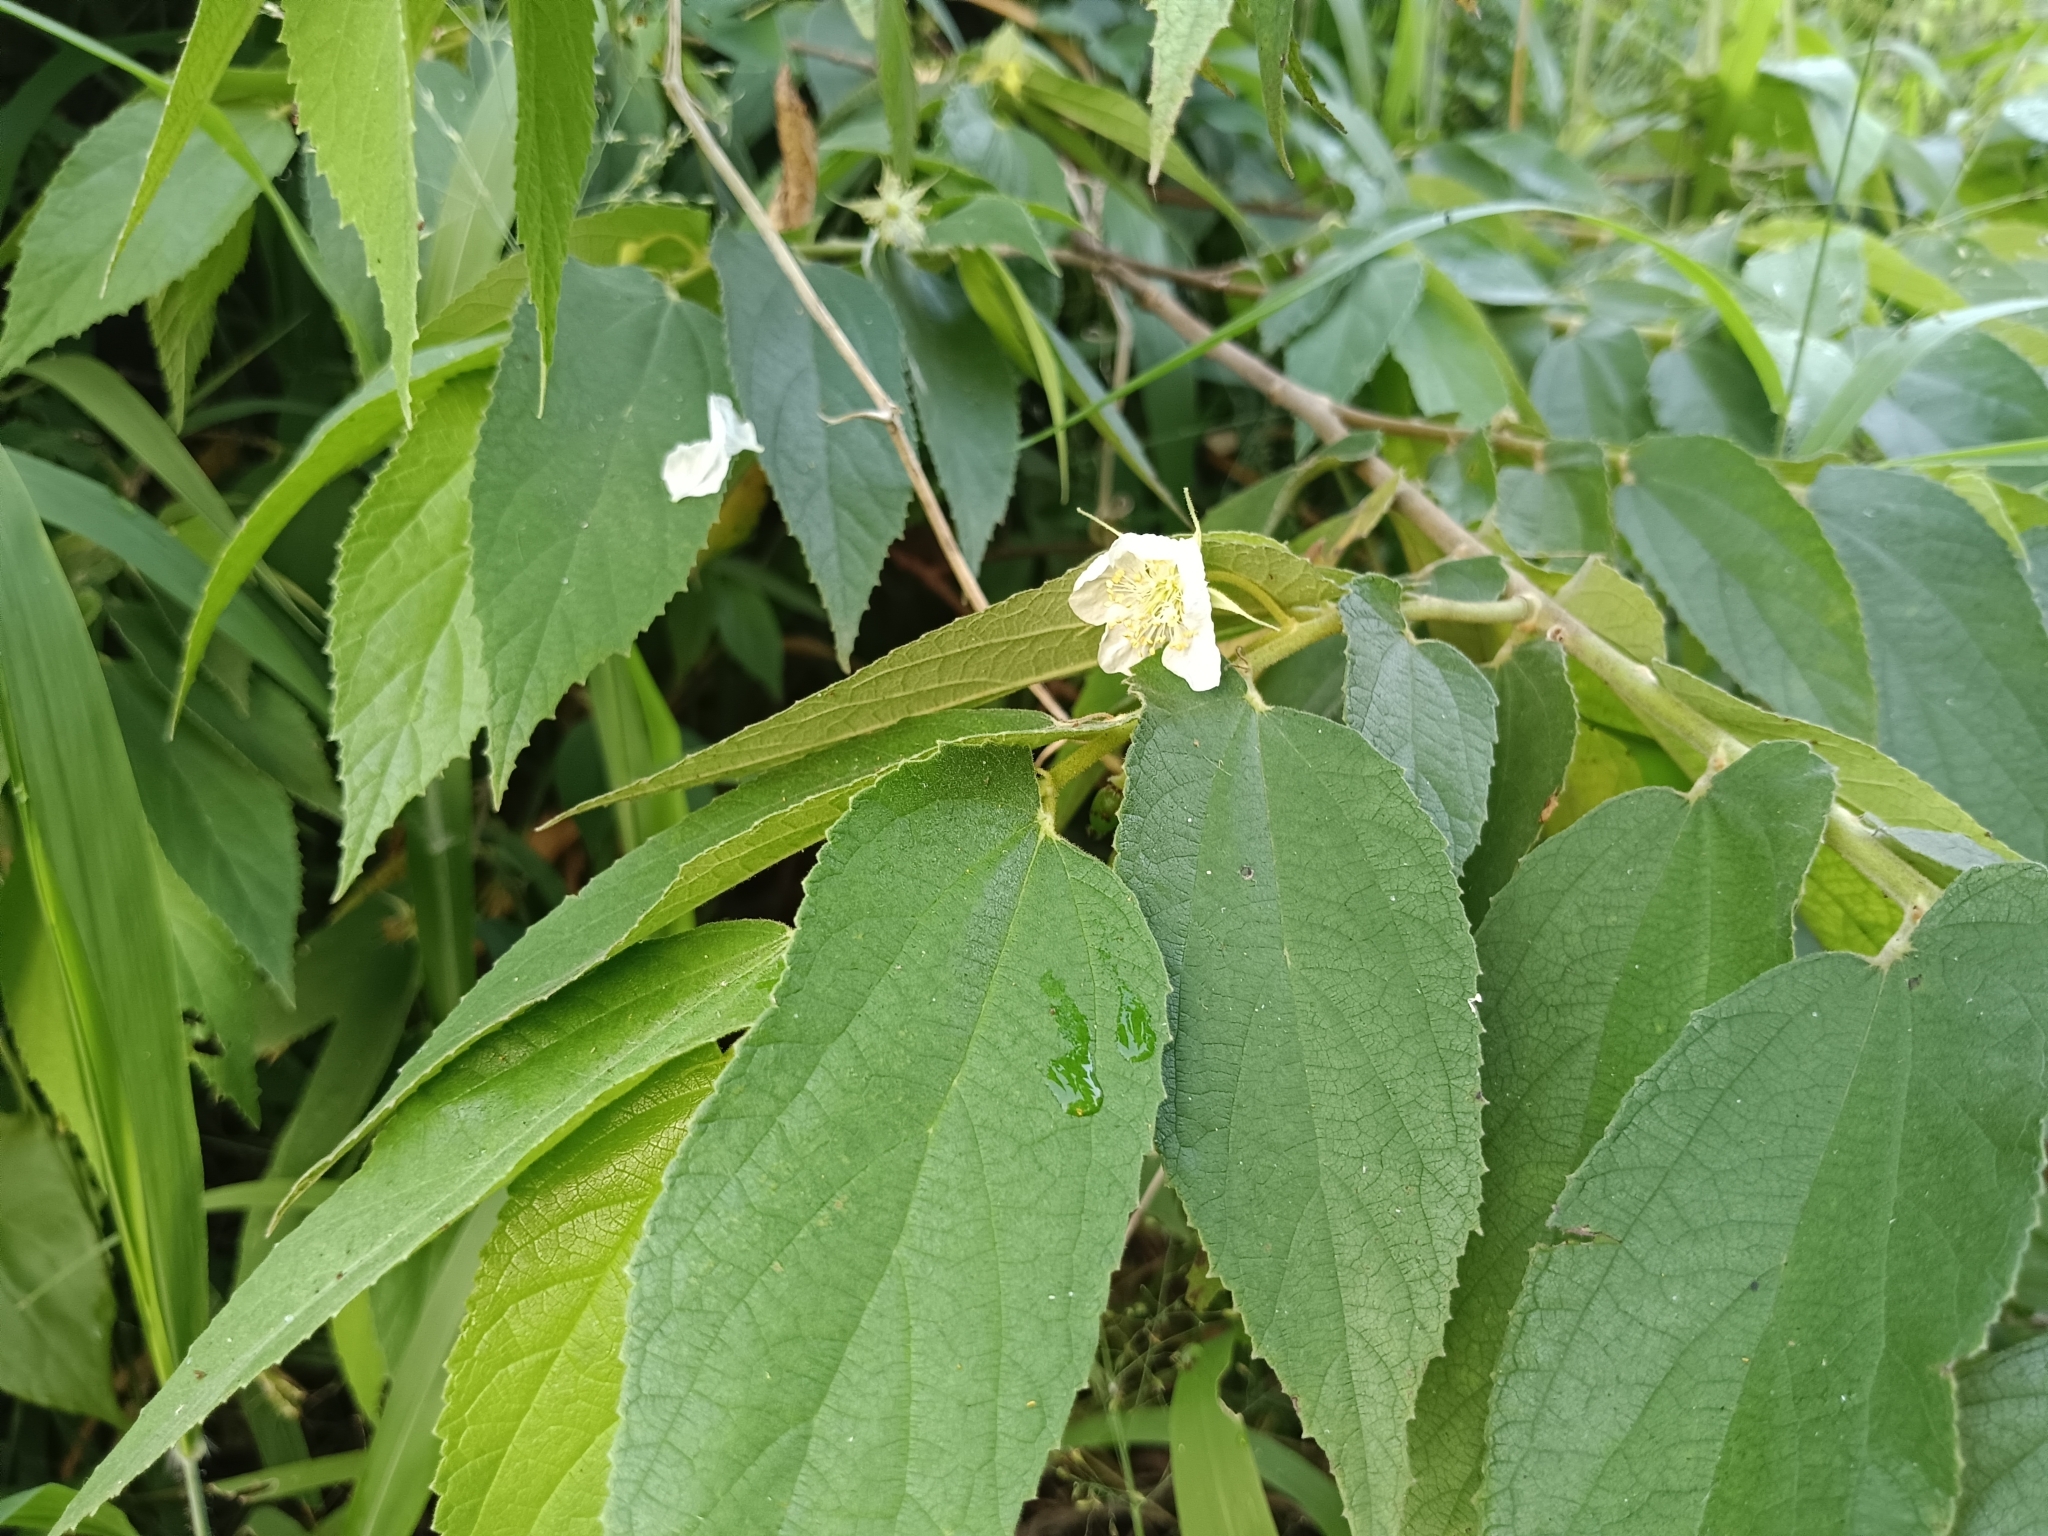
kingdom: Plantae
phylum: Tracheophyta
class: Magnoliopsida
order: Malvales
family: Muntingiaceae
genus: Muntingia
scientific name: Muntingia calabura
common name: Strawberrytree
